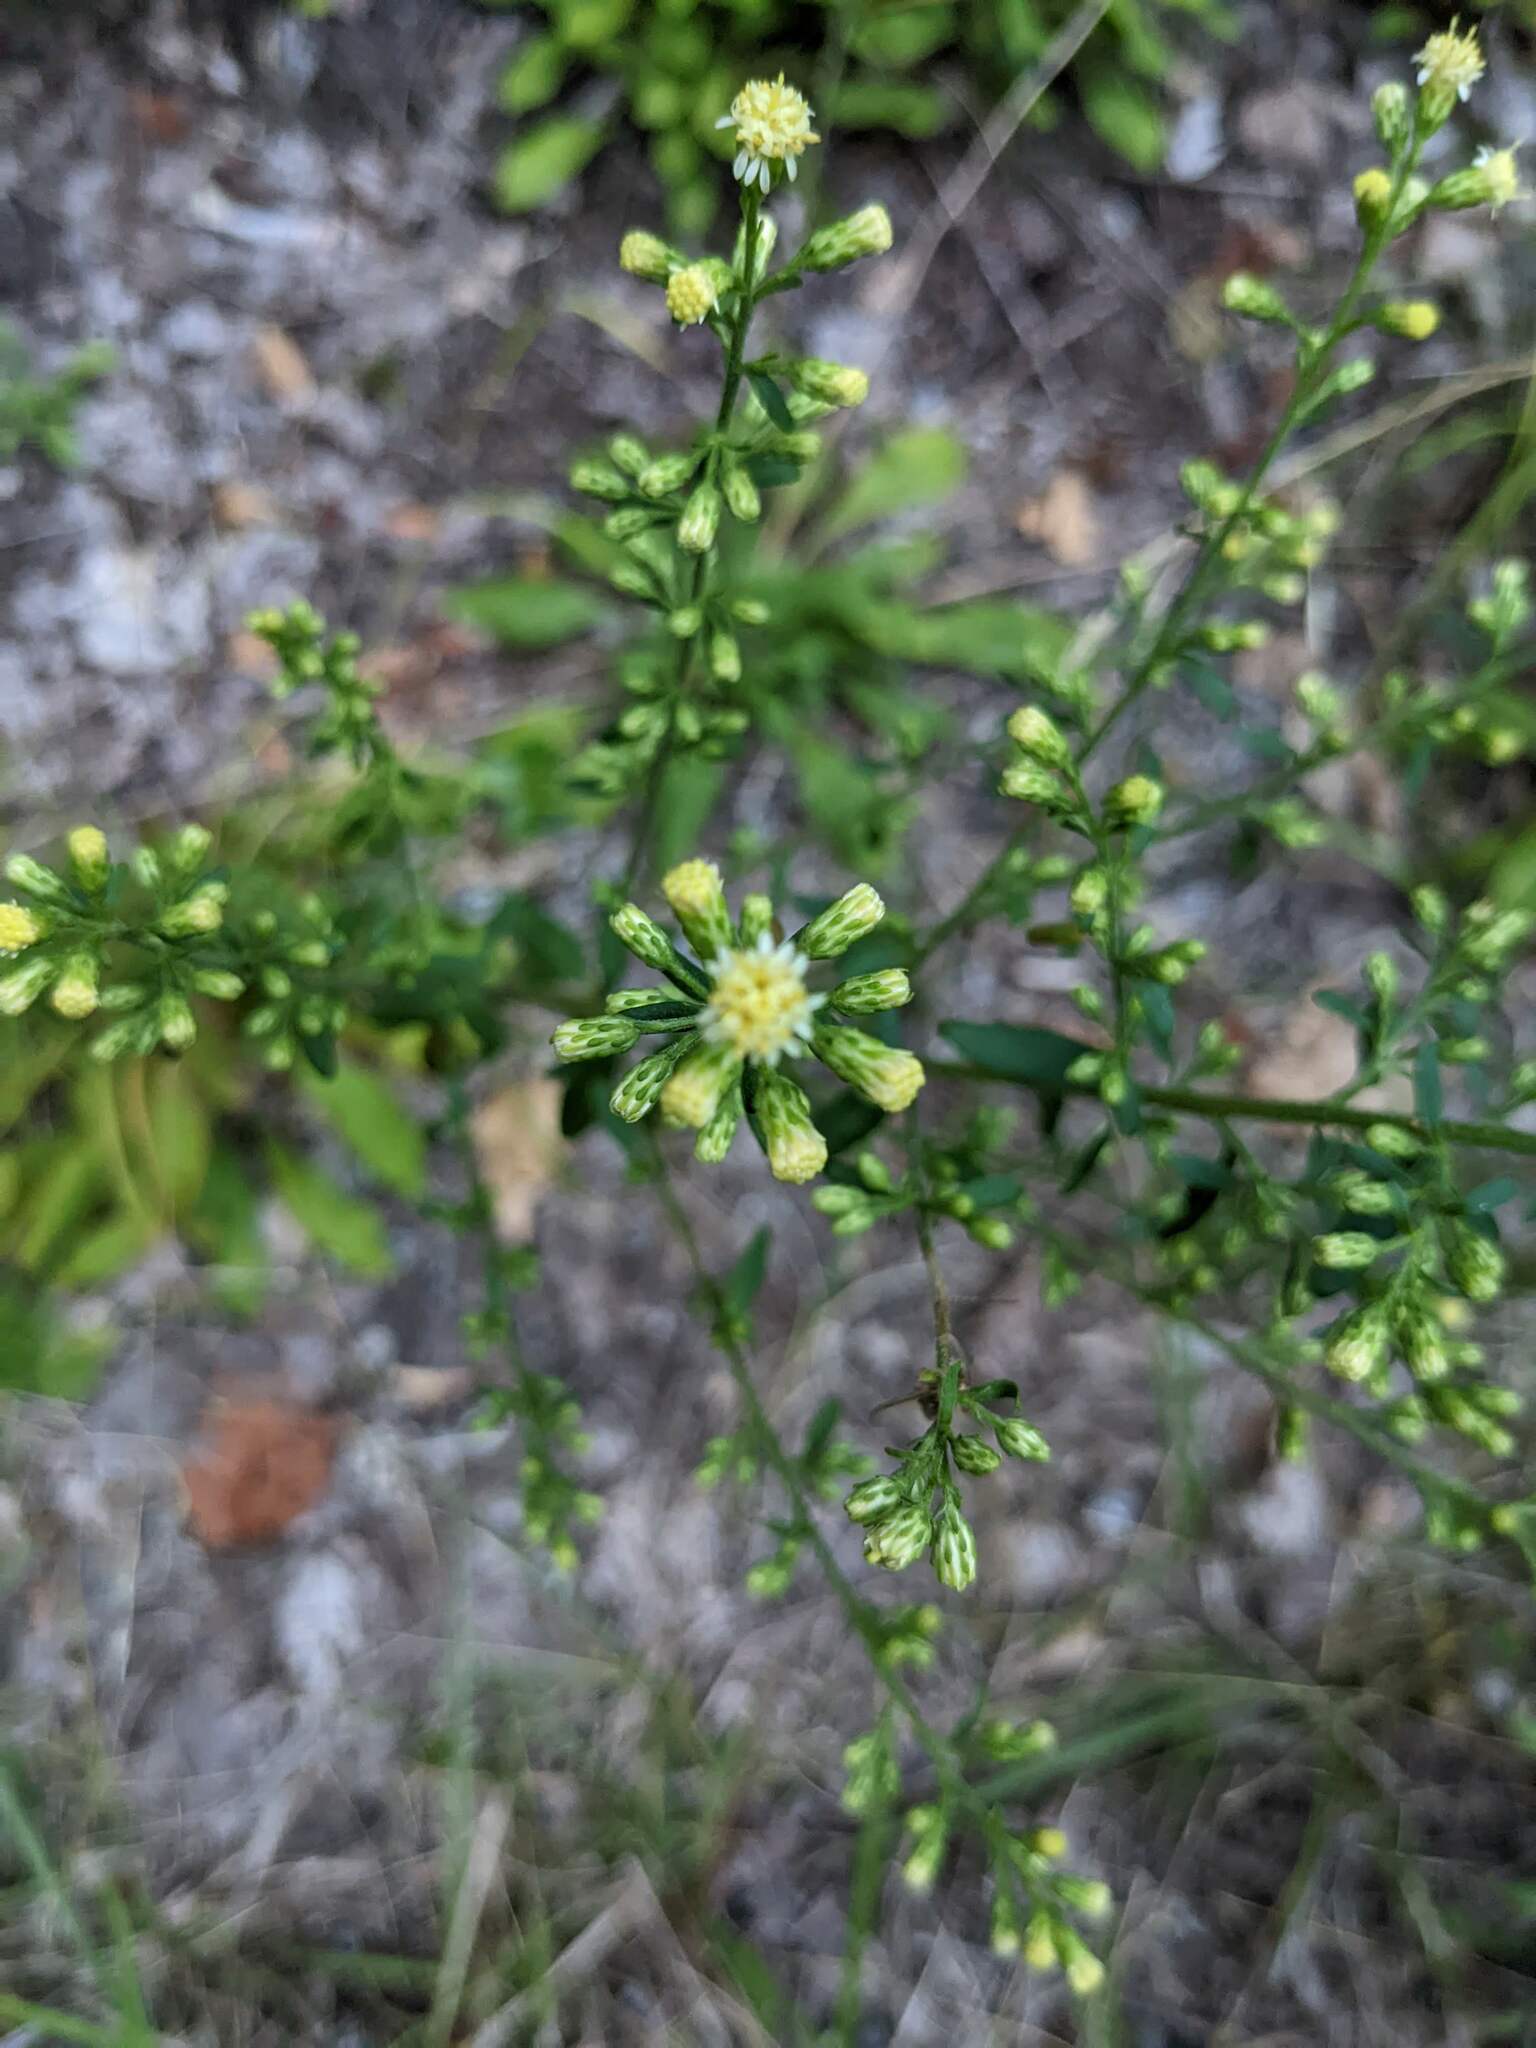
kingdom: Plantae
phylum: Tracheophyta
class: Magnoliopsida
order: Asterales
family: Asteraceae
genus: Solidago
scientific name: Solidago bicolor
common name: Silverrod
